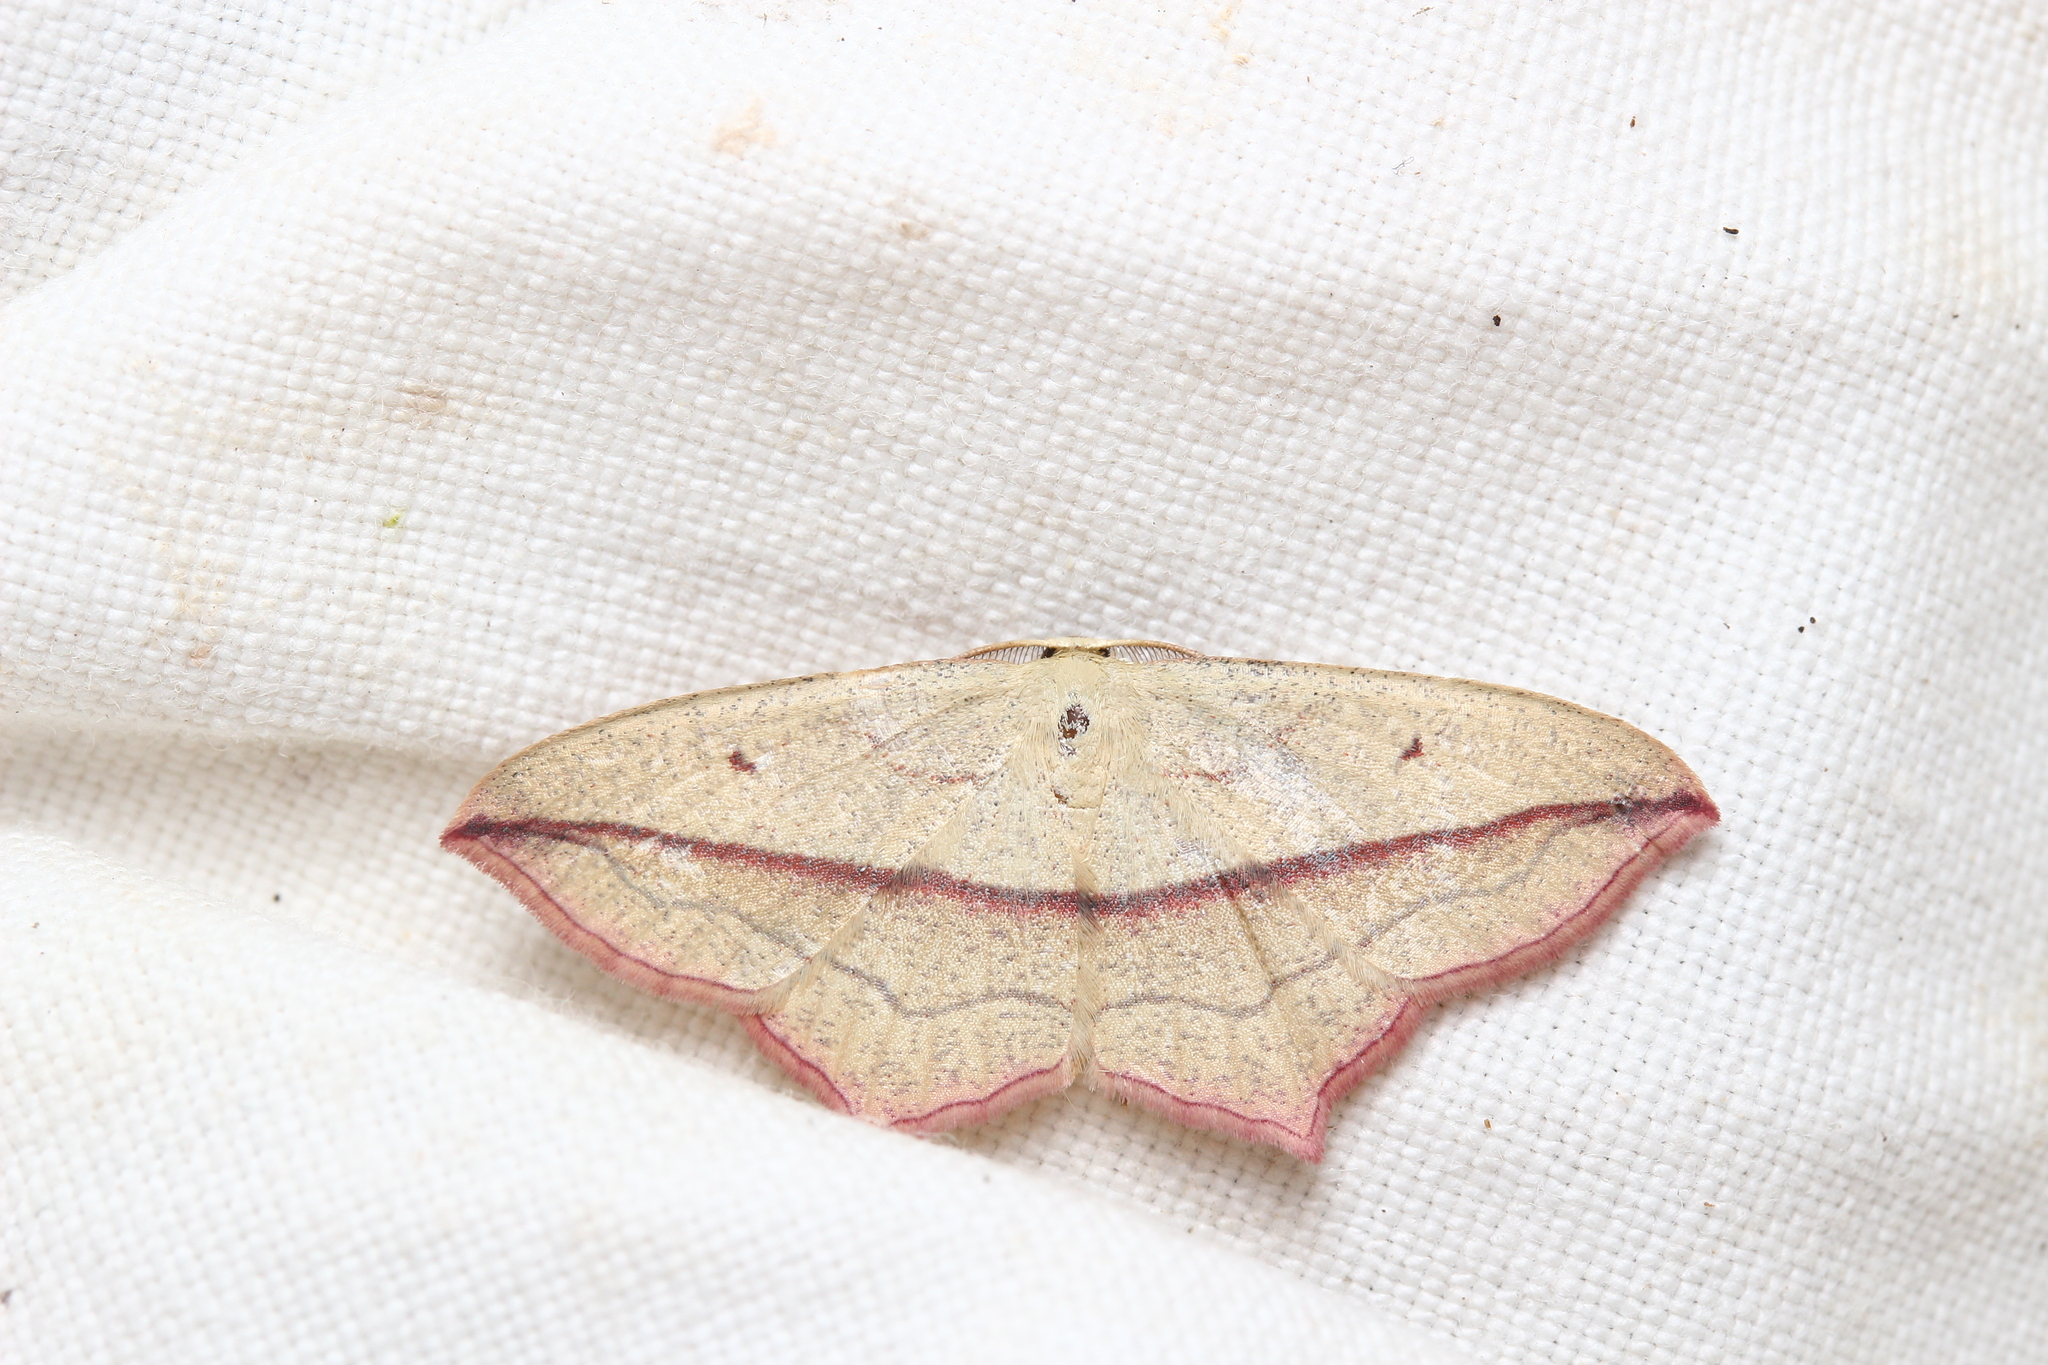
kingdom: Animalia
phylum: Arthropoda
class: Insecta
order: Lepidoptera
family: Geometridae
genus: Timandra
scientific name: Timandra comae
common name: Blood-vein
